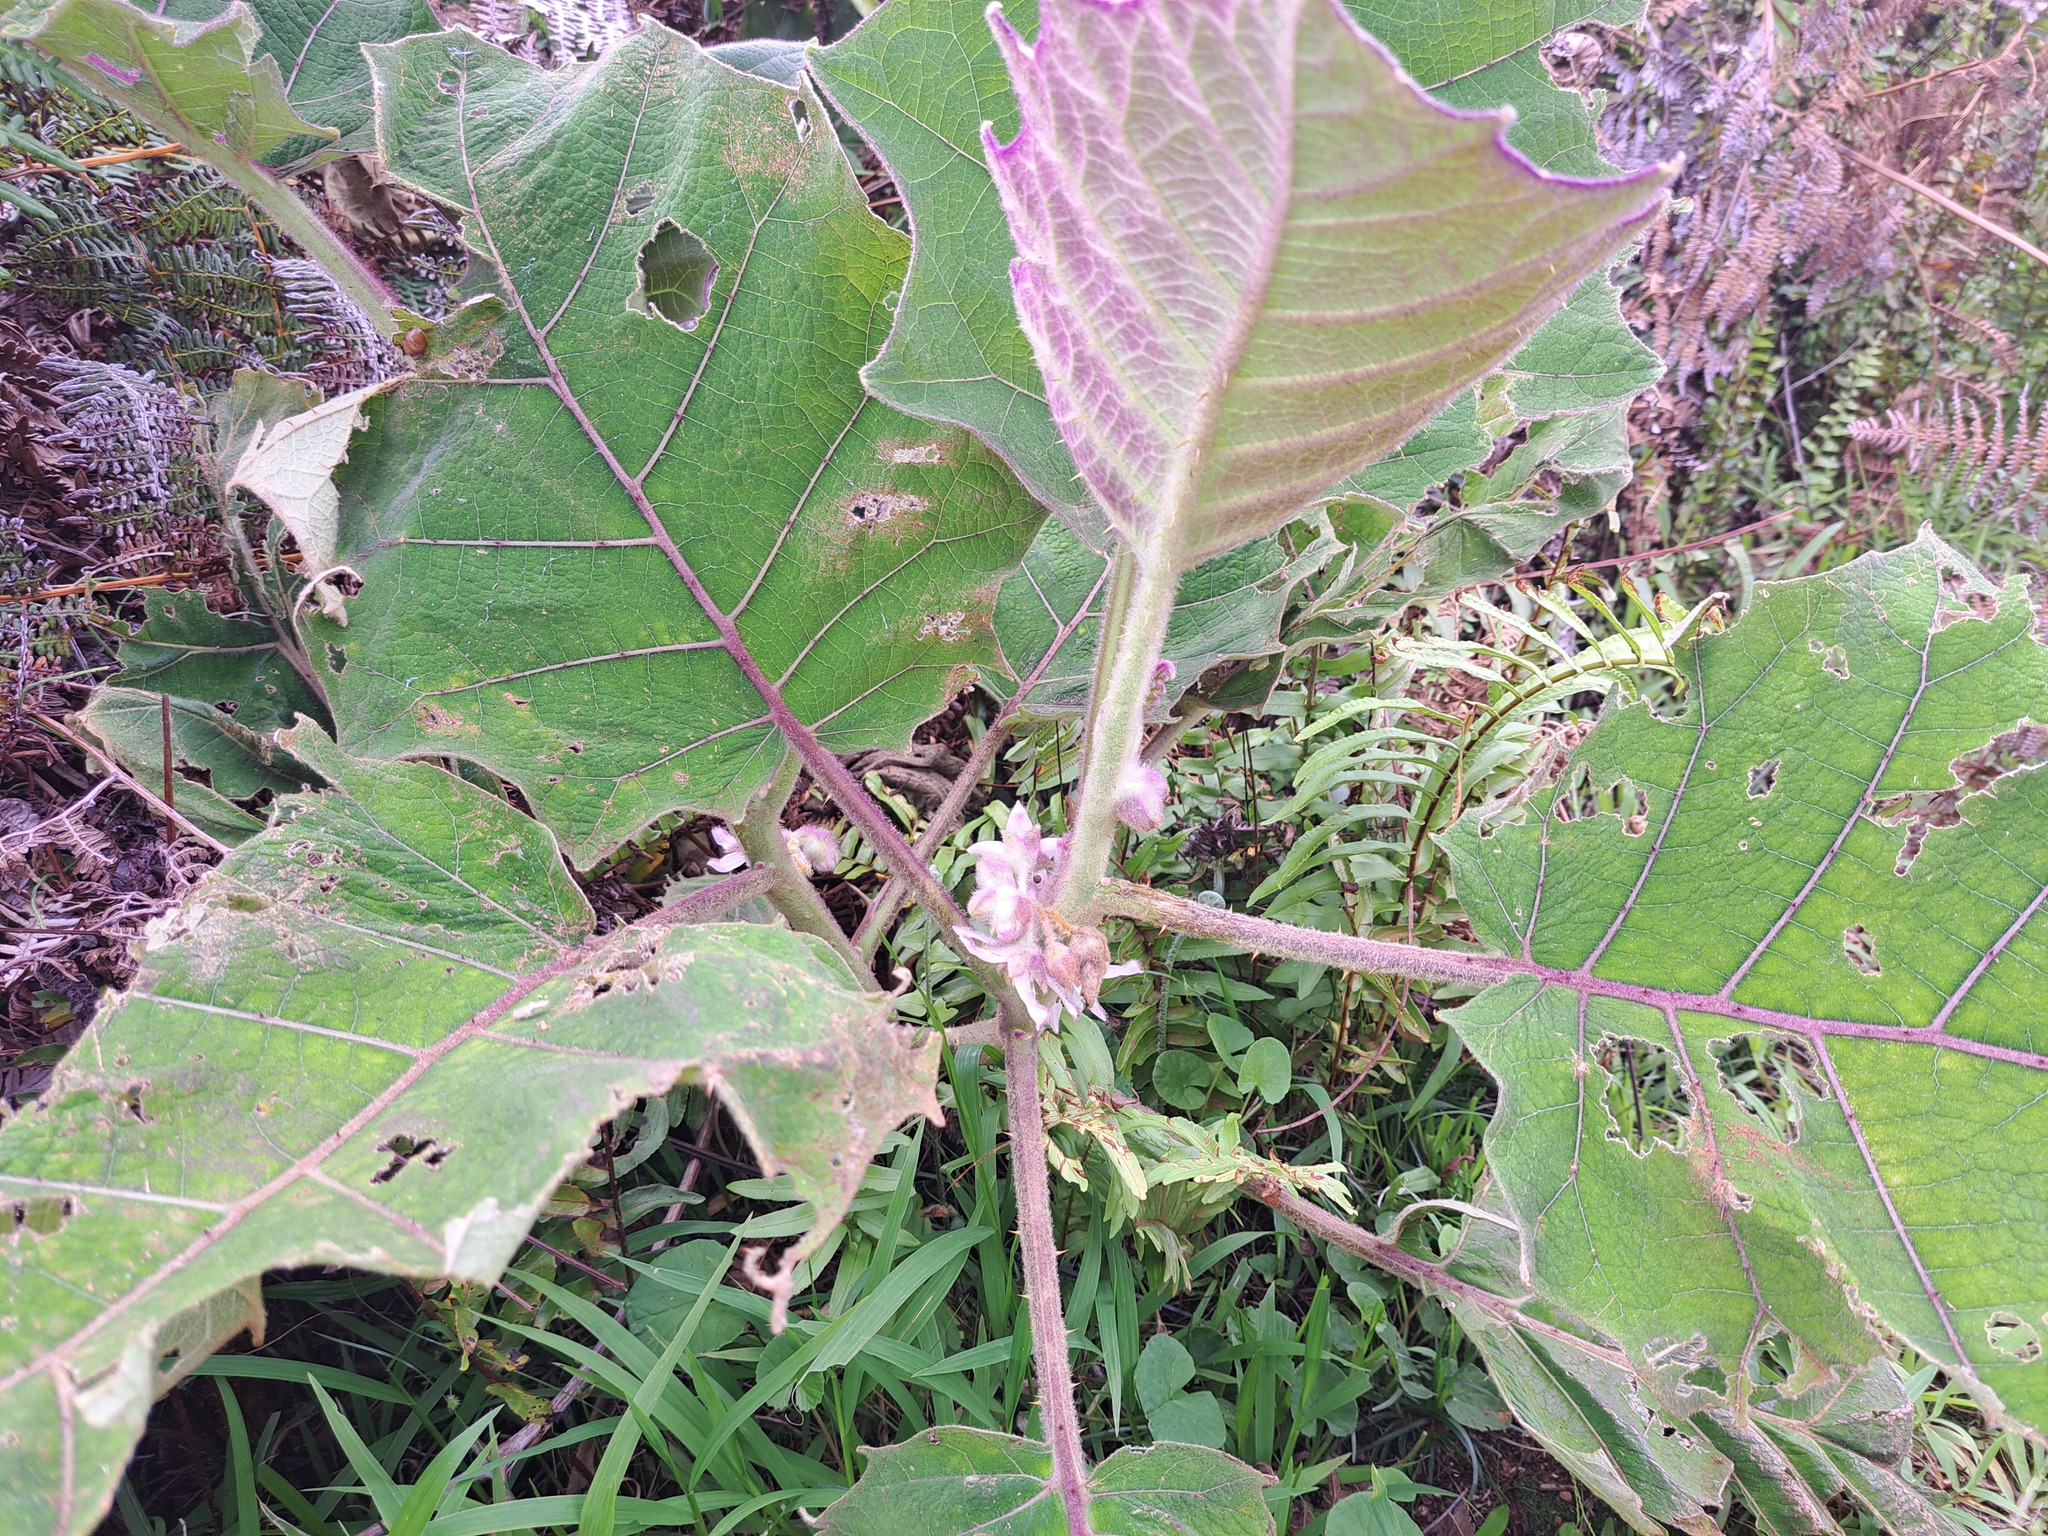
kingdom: Plantae
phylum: Tracheophyta
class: Magnoliopsida
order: Solanales
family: Solanaceae
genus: Solanum
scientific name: Solanum quitoense
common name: Quito-orange
